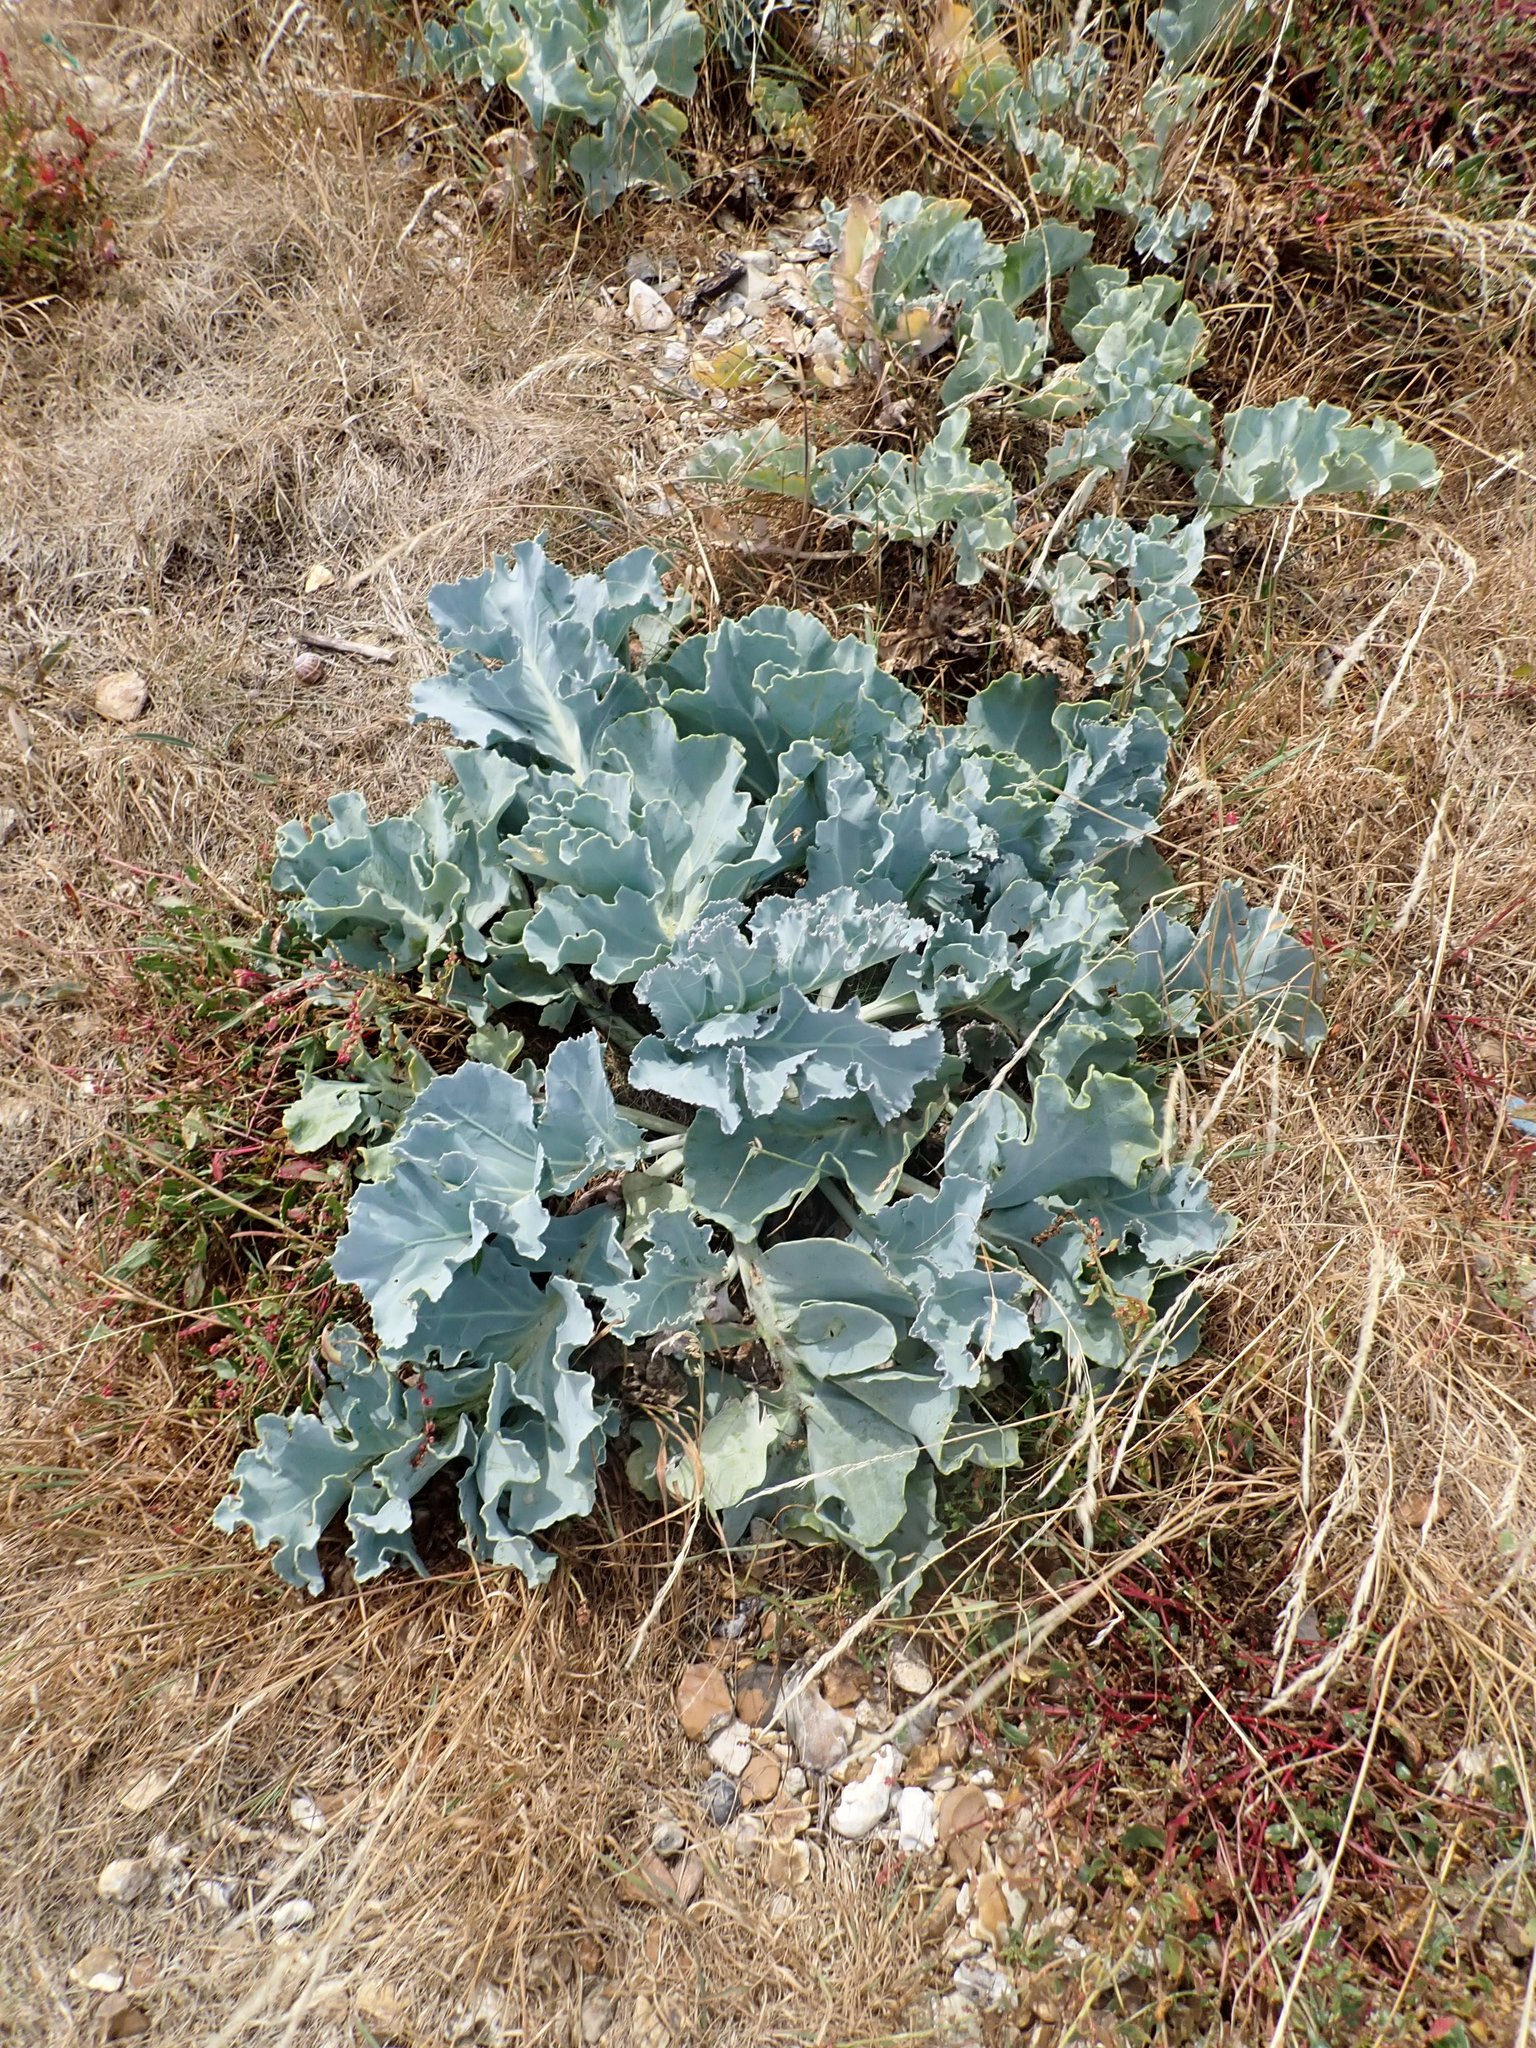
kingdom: Plantae
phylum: Tracheophyta
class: Magnoliopsida
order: Brassicales
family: Brassicaceae
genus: Crambe
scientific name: Crambe maritima
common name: Sea-kale
